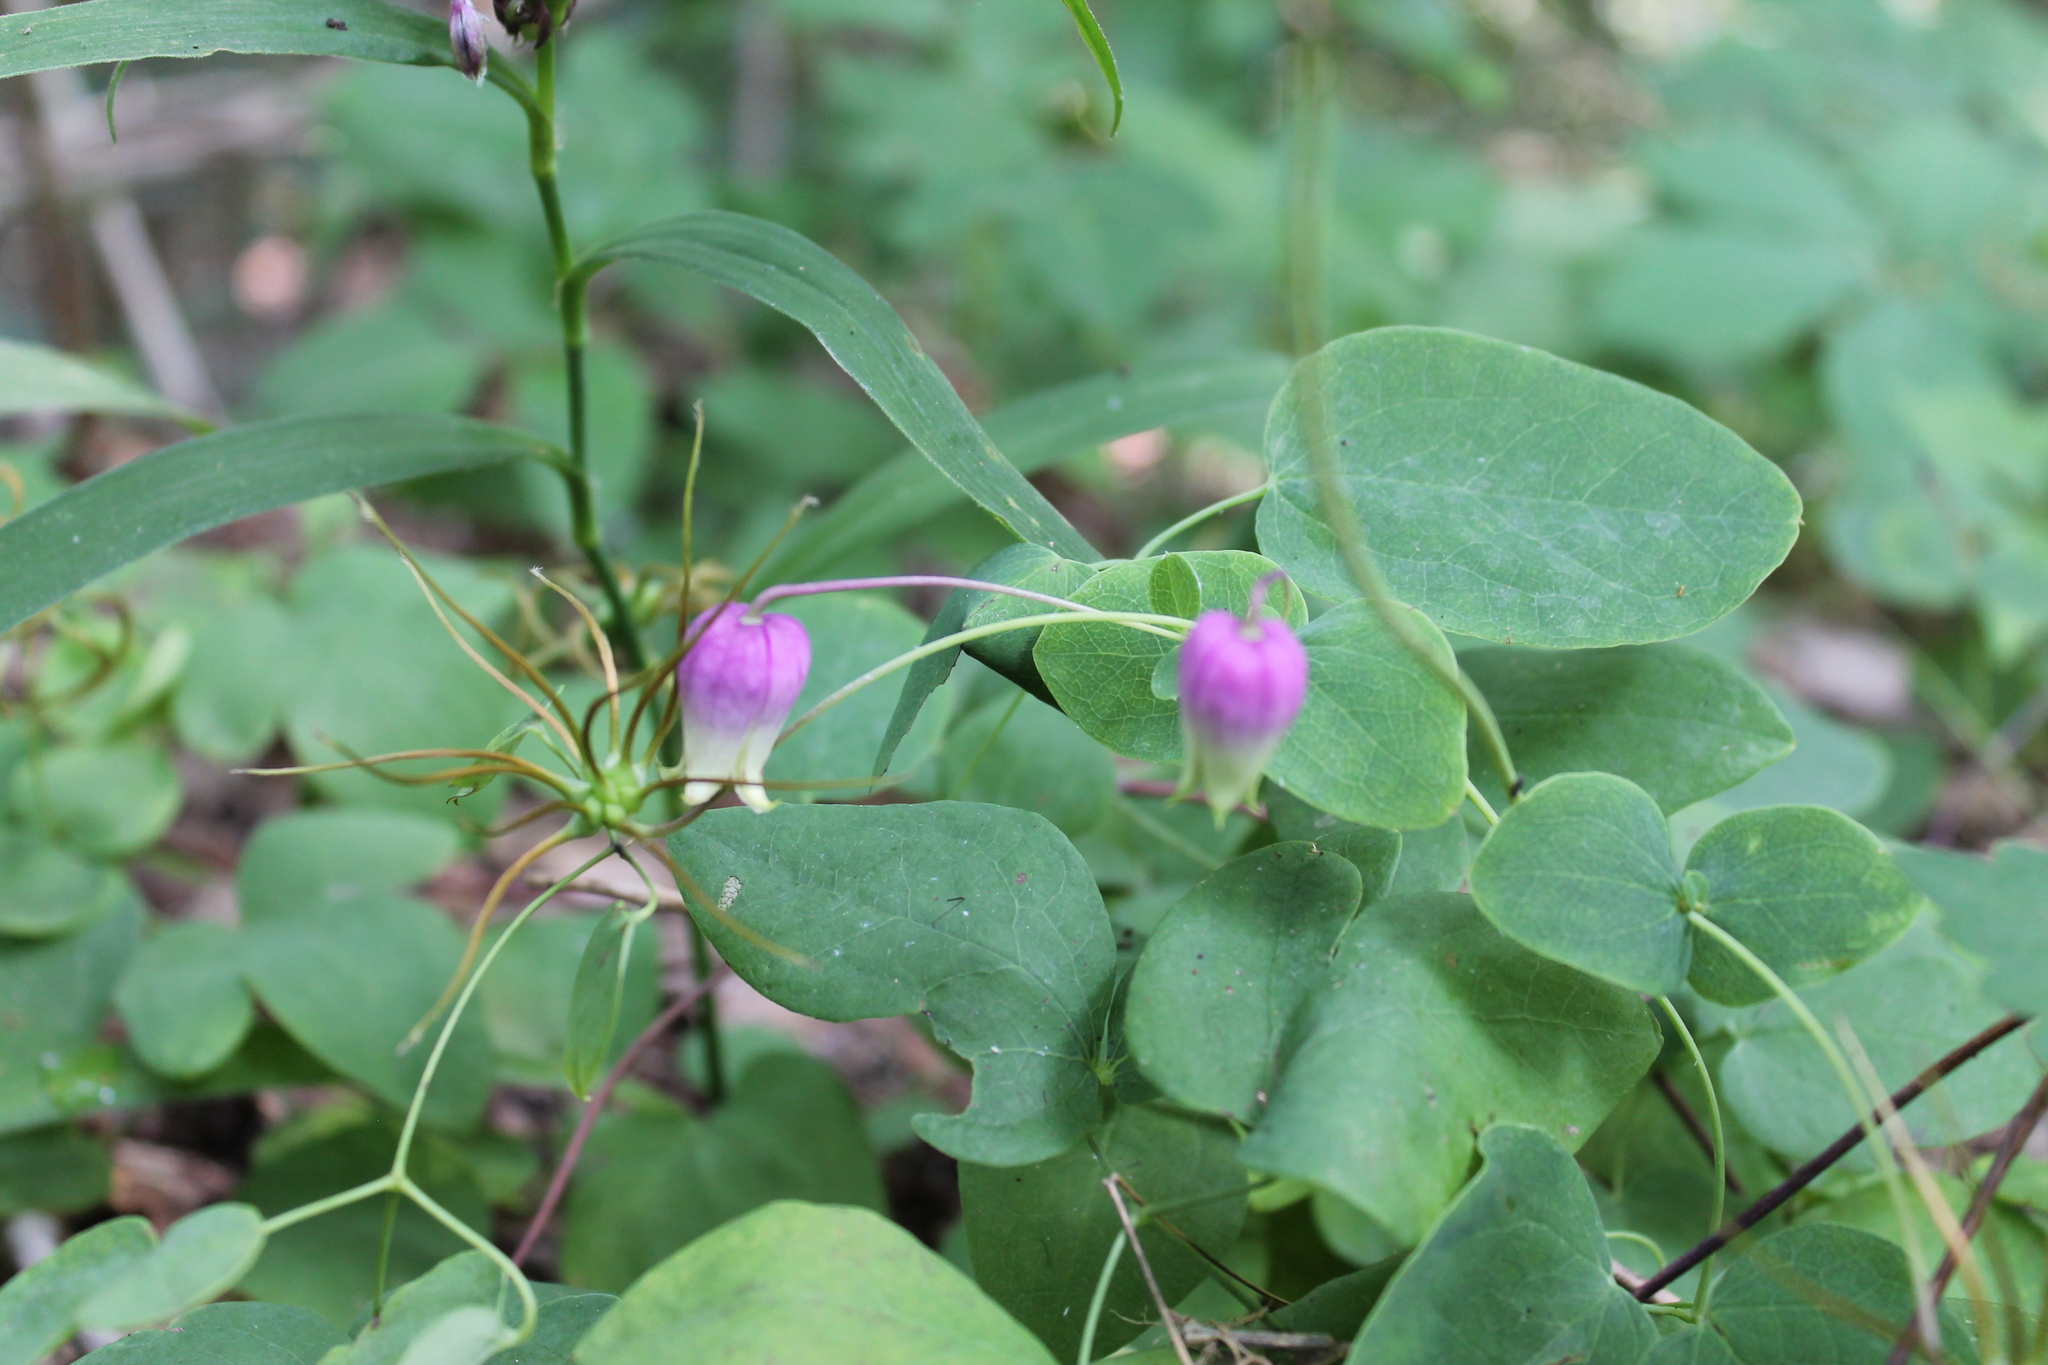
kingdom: Plantae
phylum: Tracheophyta
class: Magnoliopsida
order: Ranunculales
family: Ranunculaceae
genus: Clematis
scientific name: Clematis versicolor
